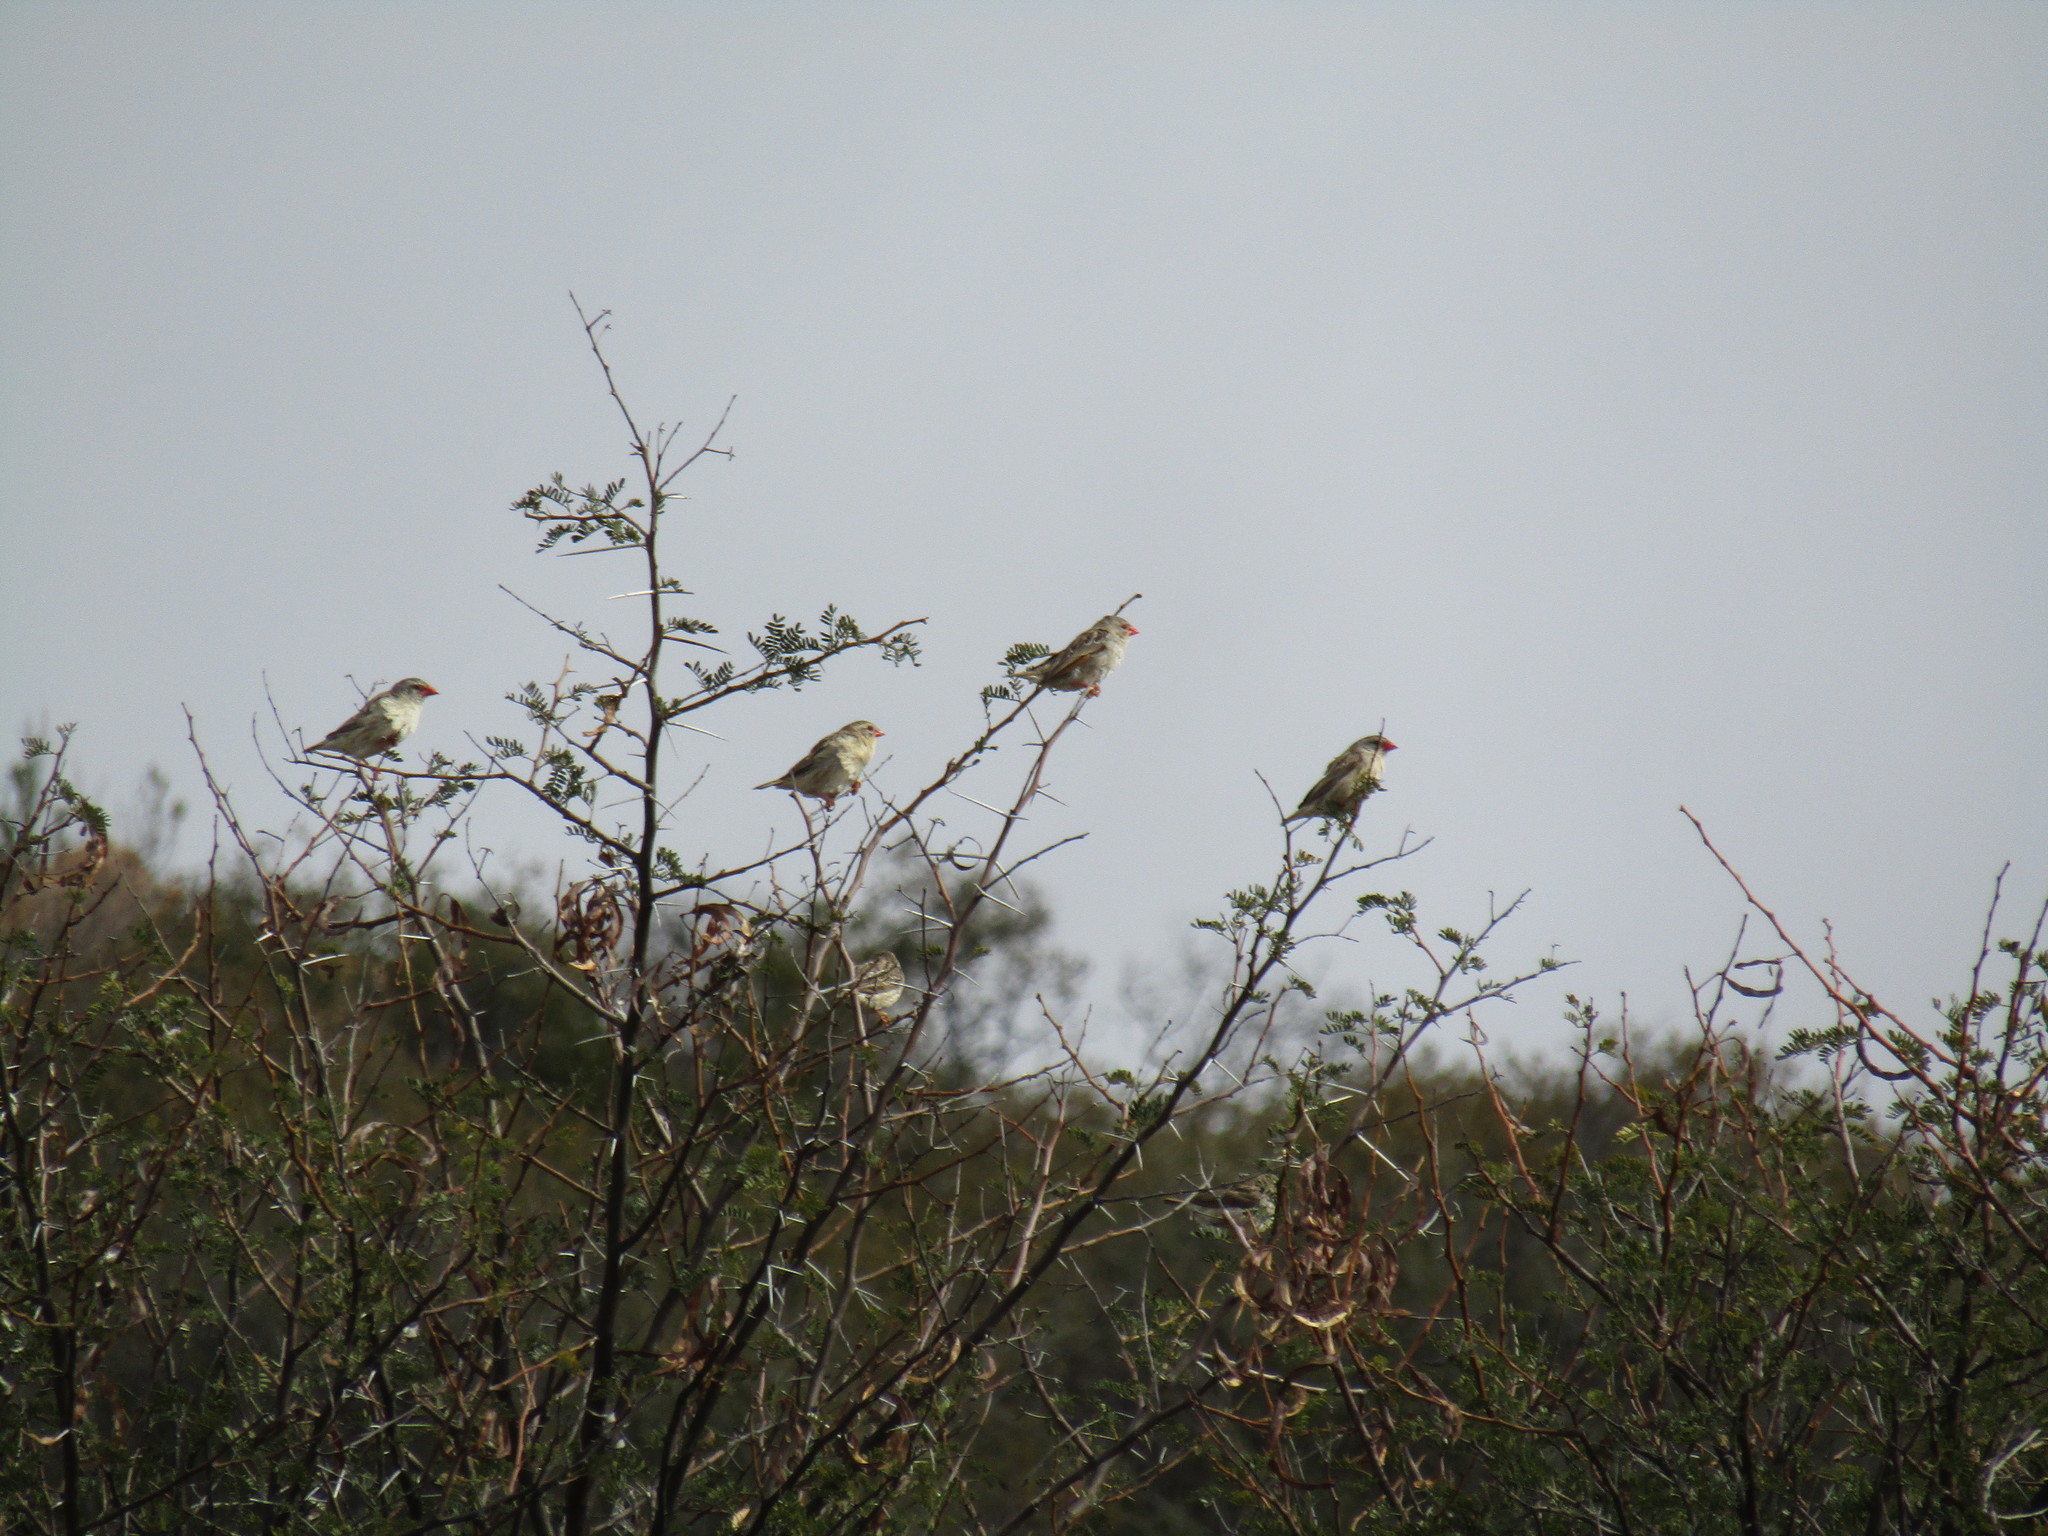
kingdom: Animalia
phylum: Chordata
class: Aves
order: Passeriformes
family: Ploceidae
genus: Quelea
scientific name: Quelea quelea
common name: Red-billed quelea
